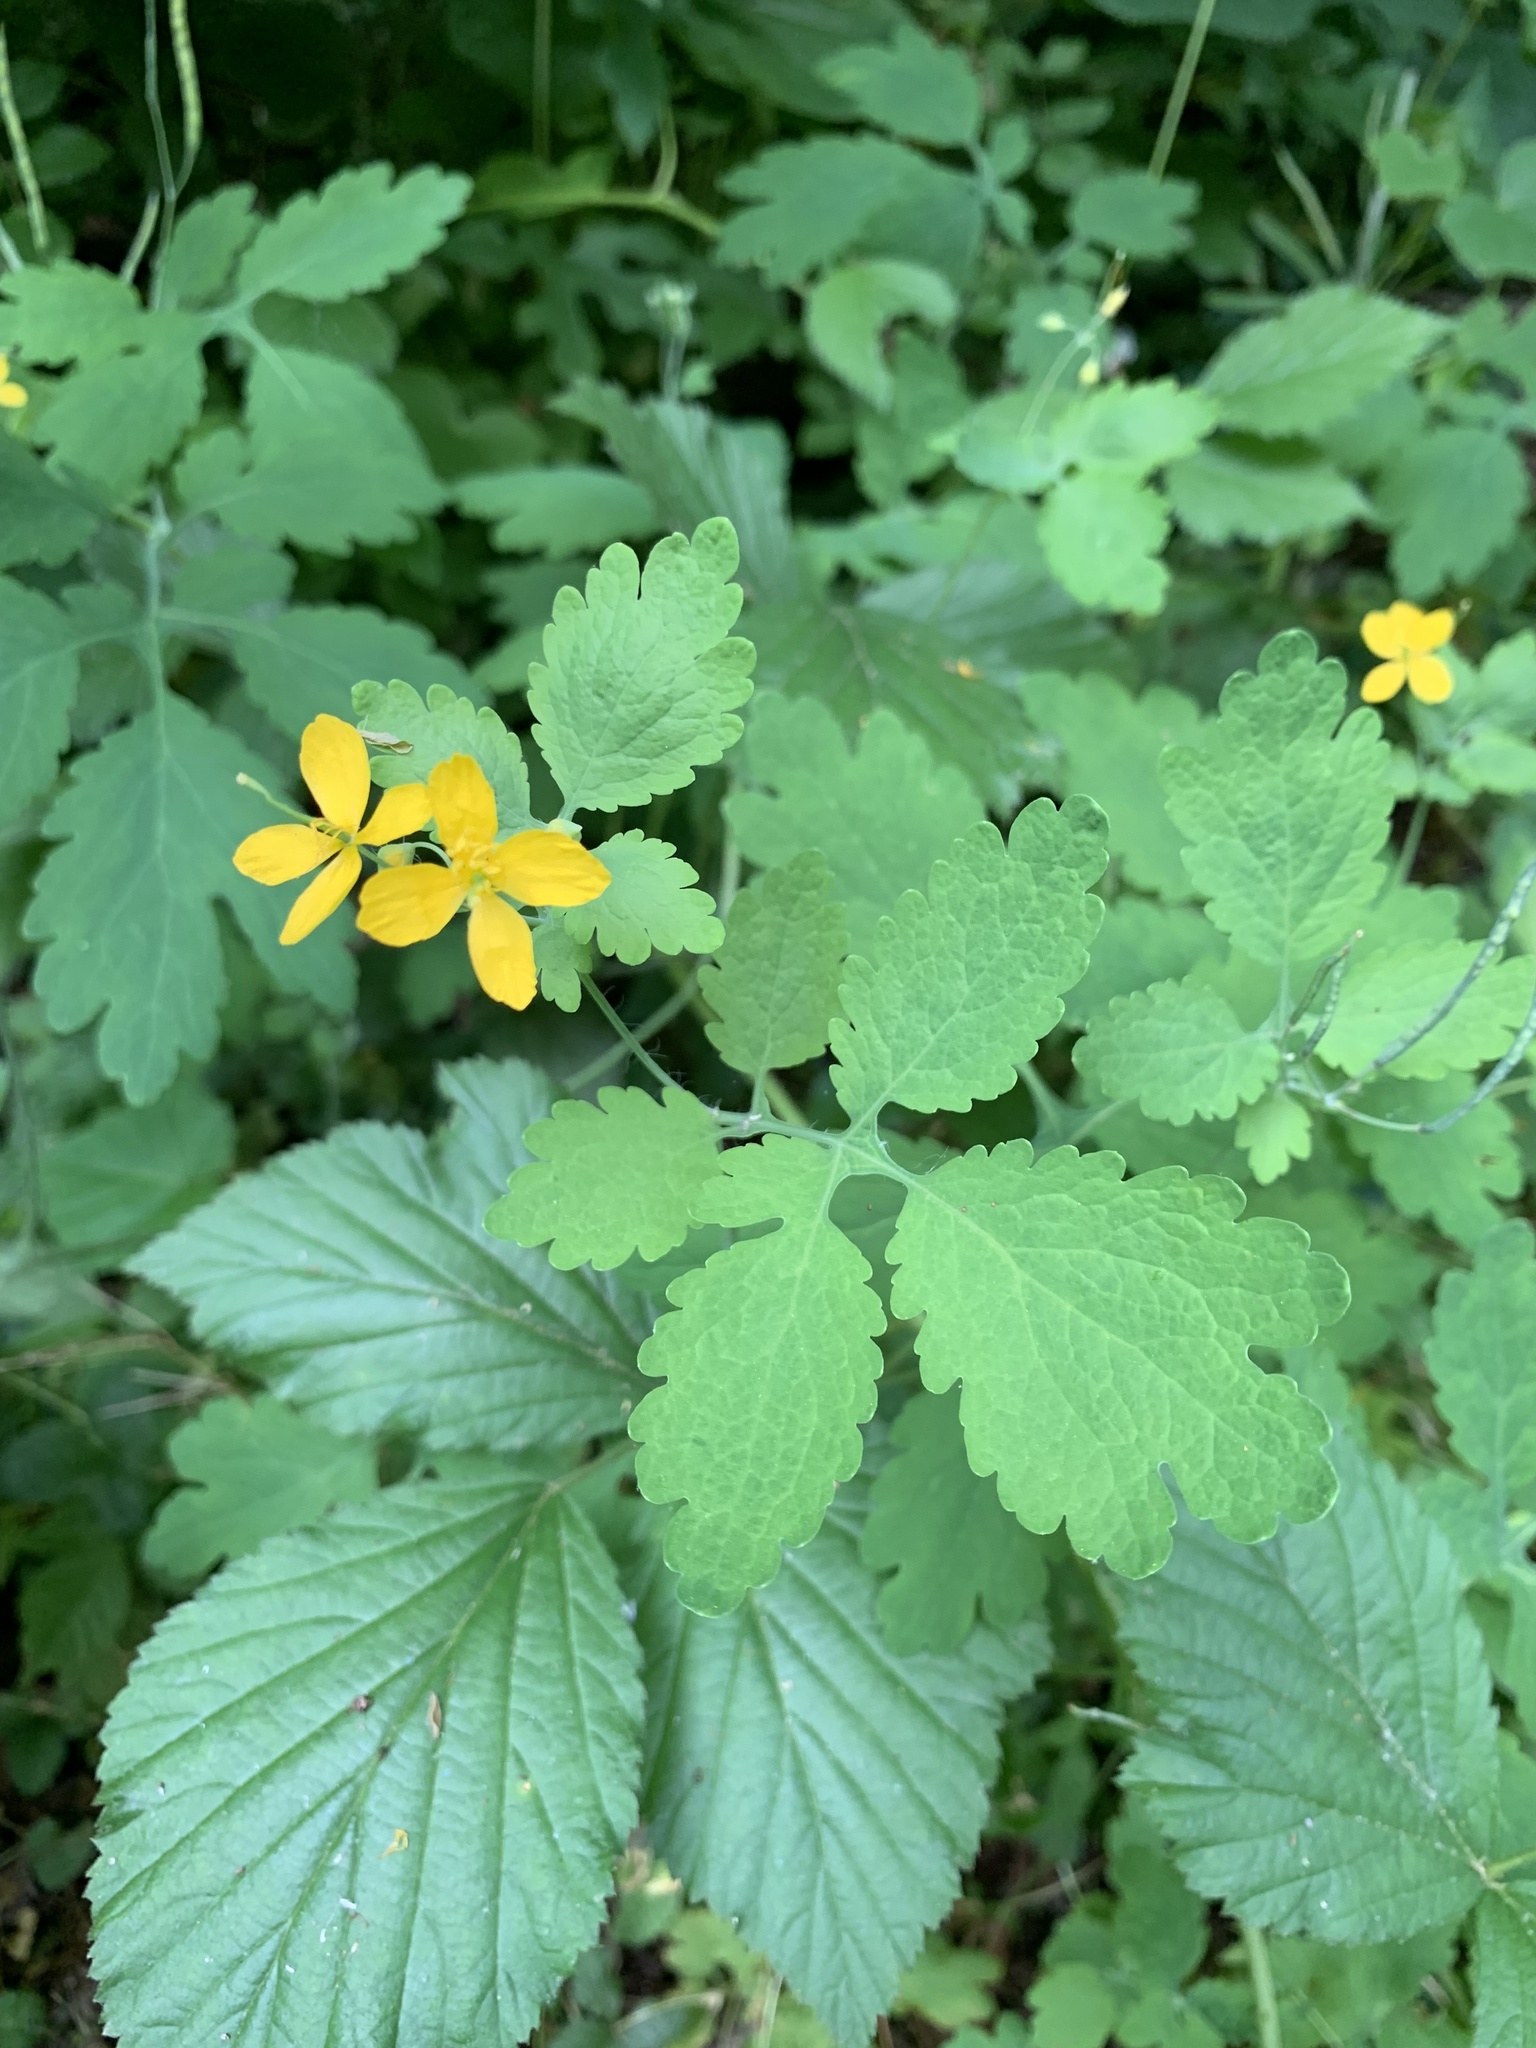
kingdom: Plantae
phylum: Tracheophyta
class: Magnoliopsida
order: Ranunculales
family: Papaveraceae
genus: Chelidonium
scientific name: Chelidonium majus
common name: Greater celandine
